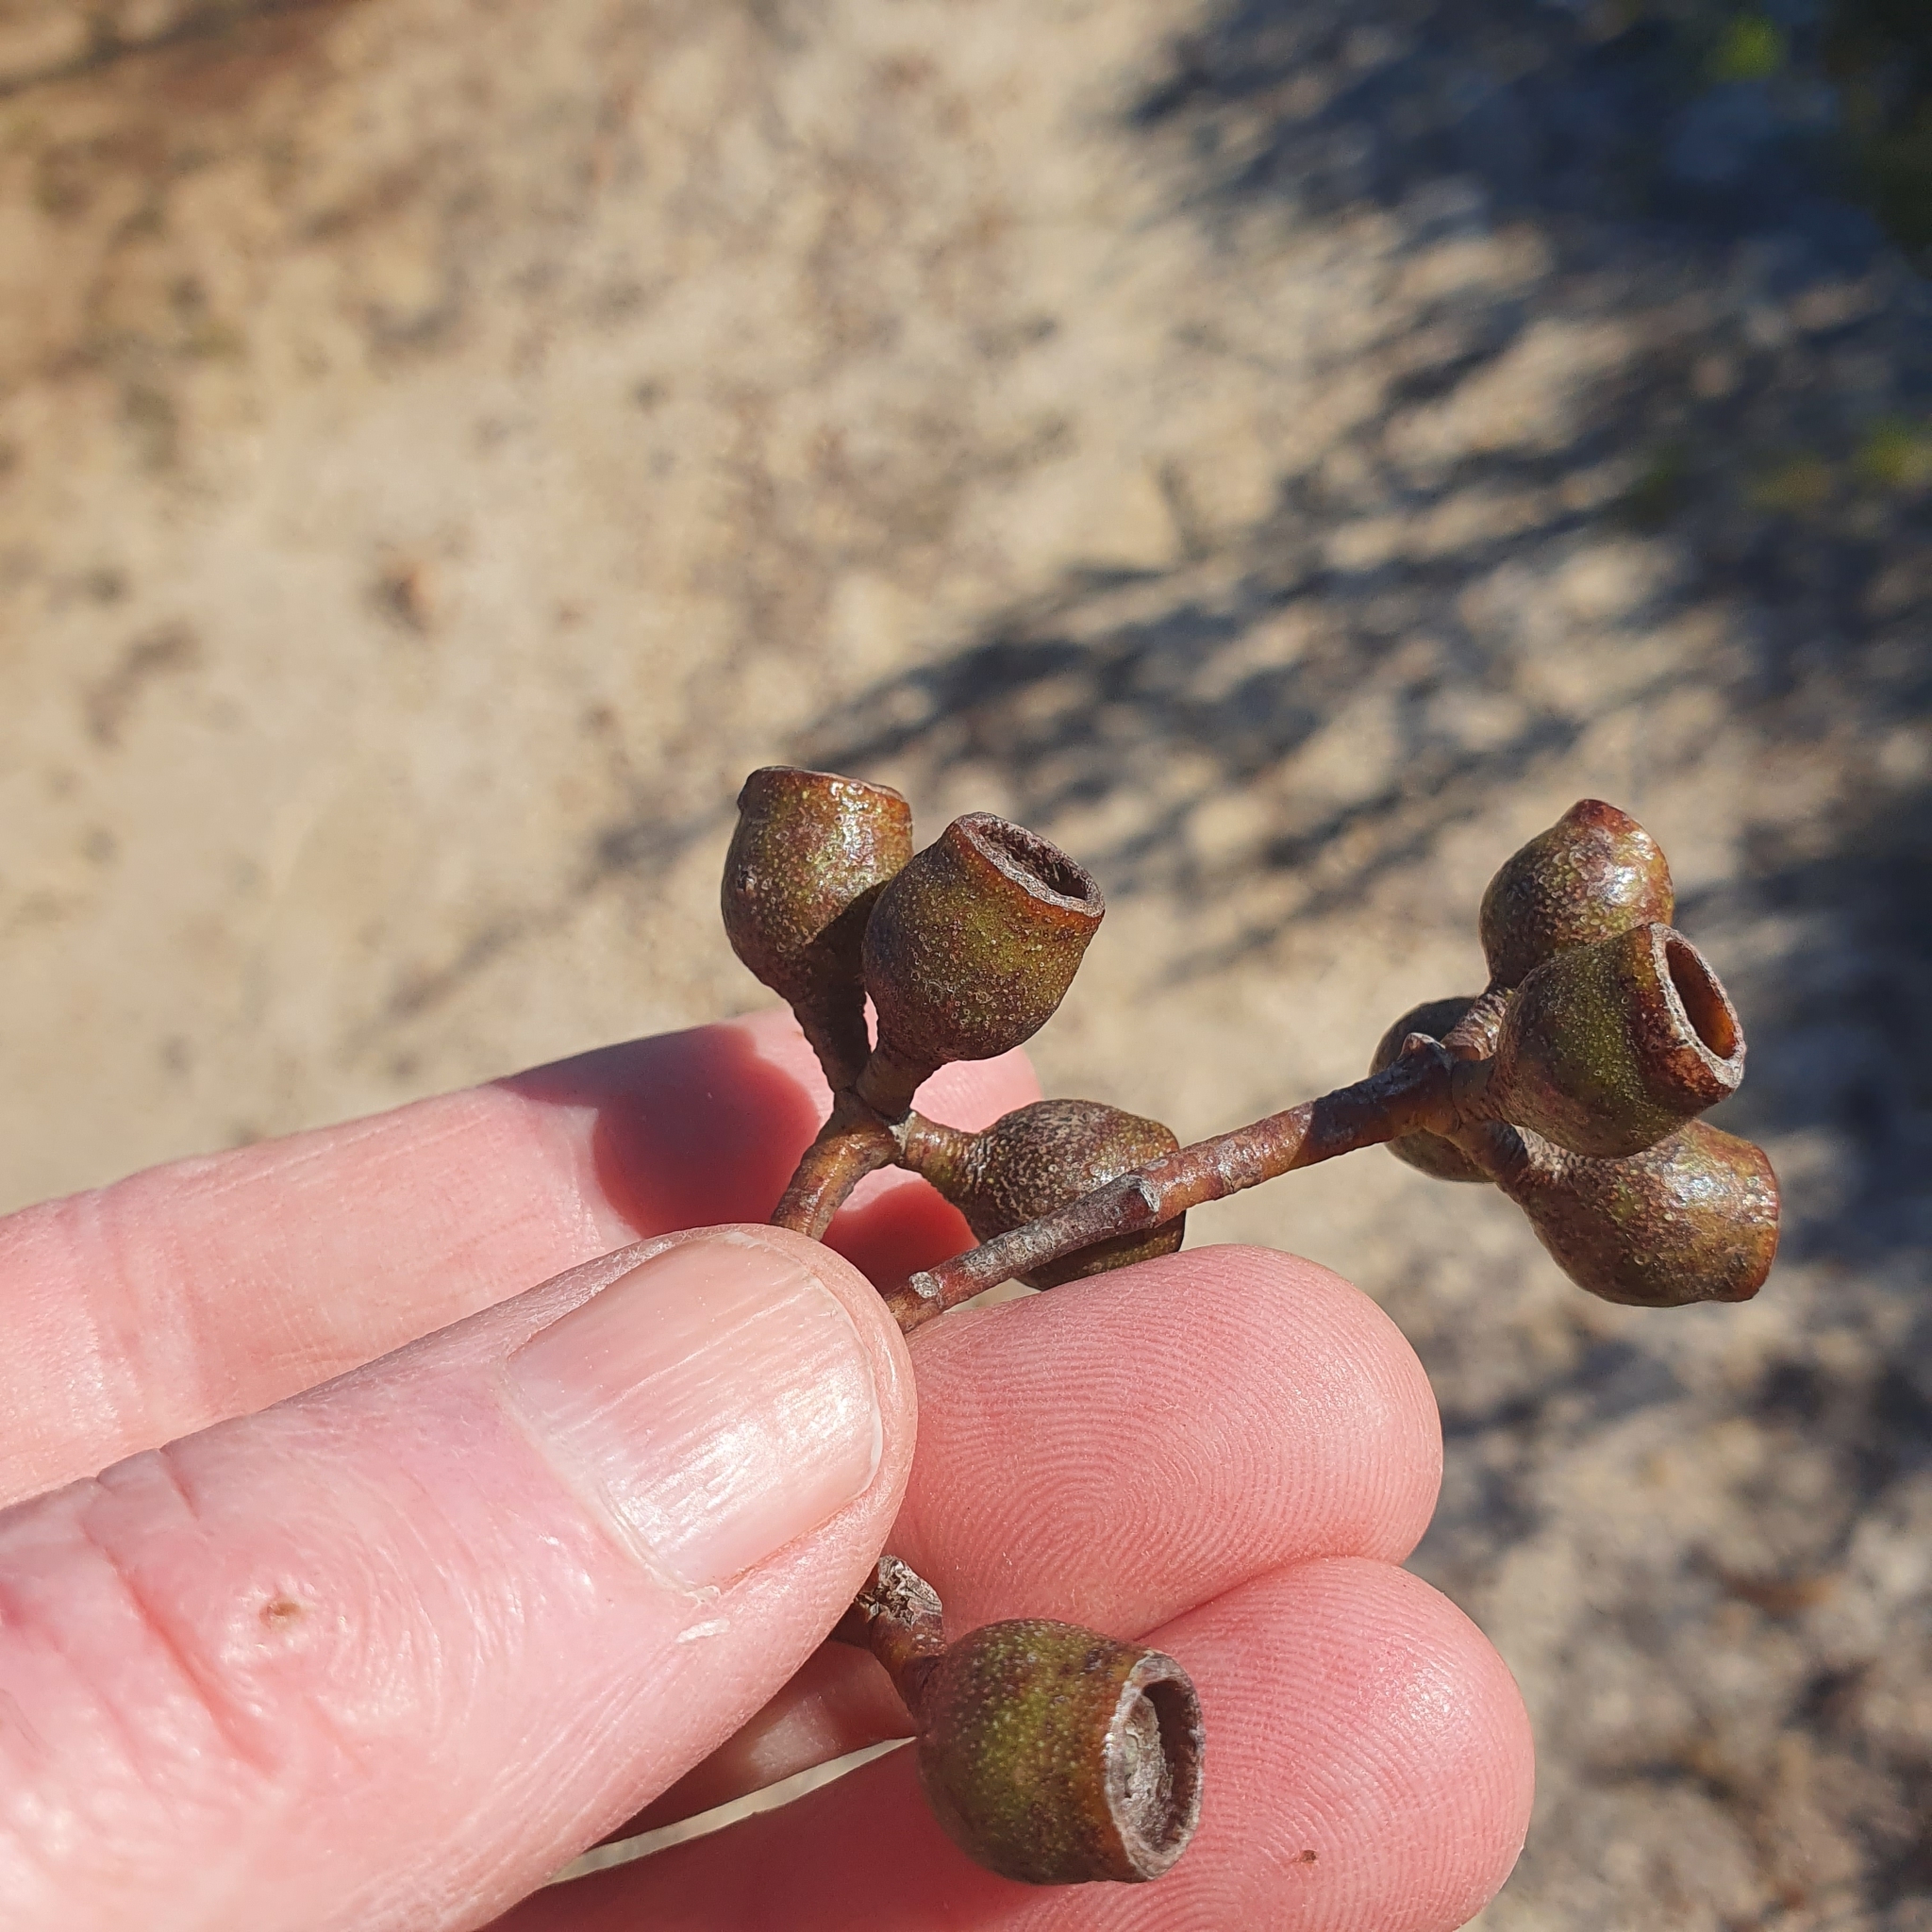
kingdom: Plantae
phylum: Tracheophyta
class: Magnoliopsida
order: Myrtales
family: Myrtaceae
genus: Eucalyptus
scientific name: Eucalyptus burgessiana
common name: Falconbridge mallee-ash
